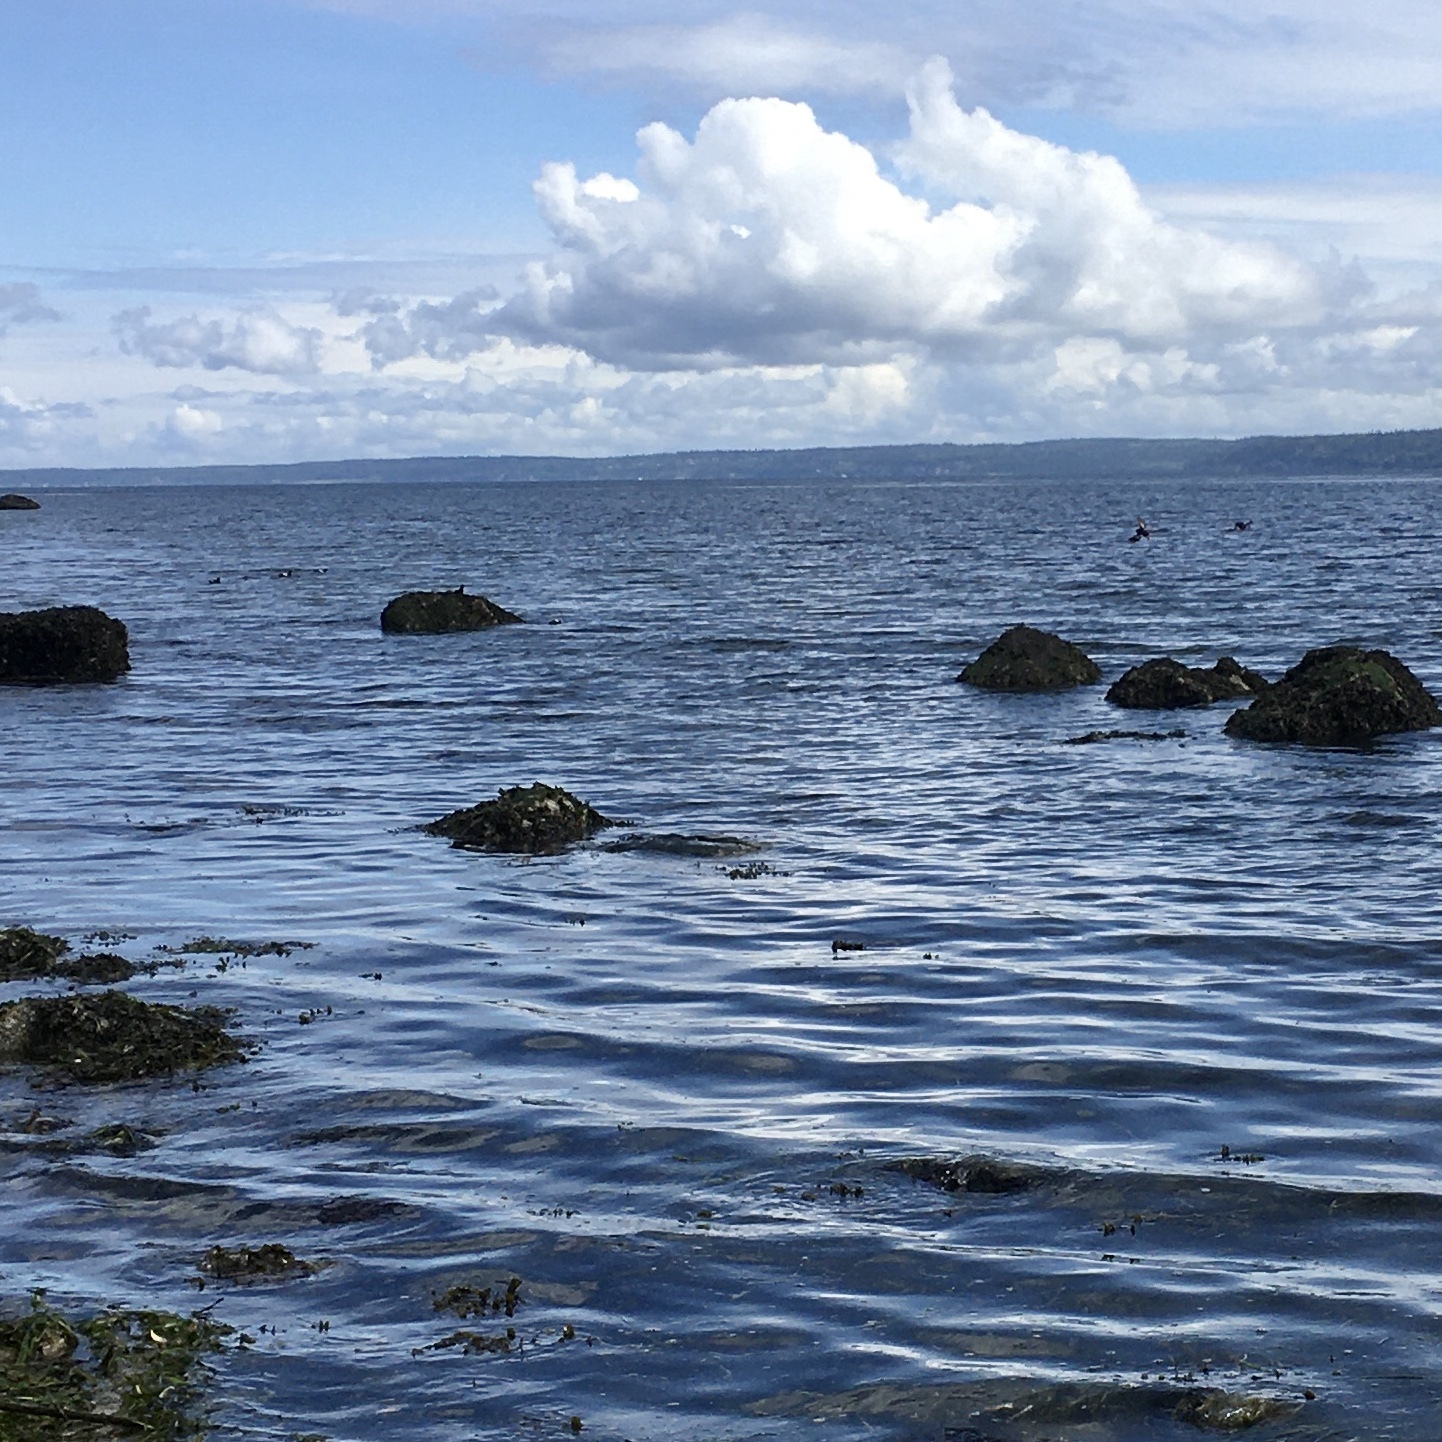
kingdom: Animalia
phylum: Chordata
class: Aves
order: Charadriiformes
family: Alcidae
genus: Cepphus
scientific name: Cepphus columba
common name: Pigeon guillemot
